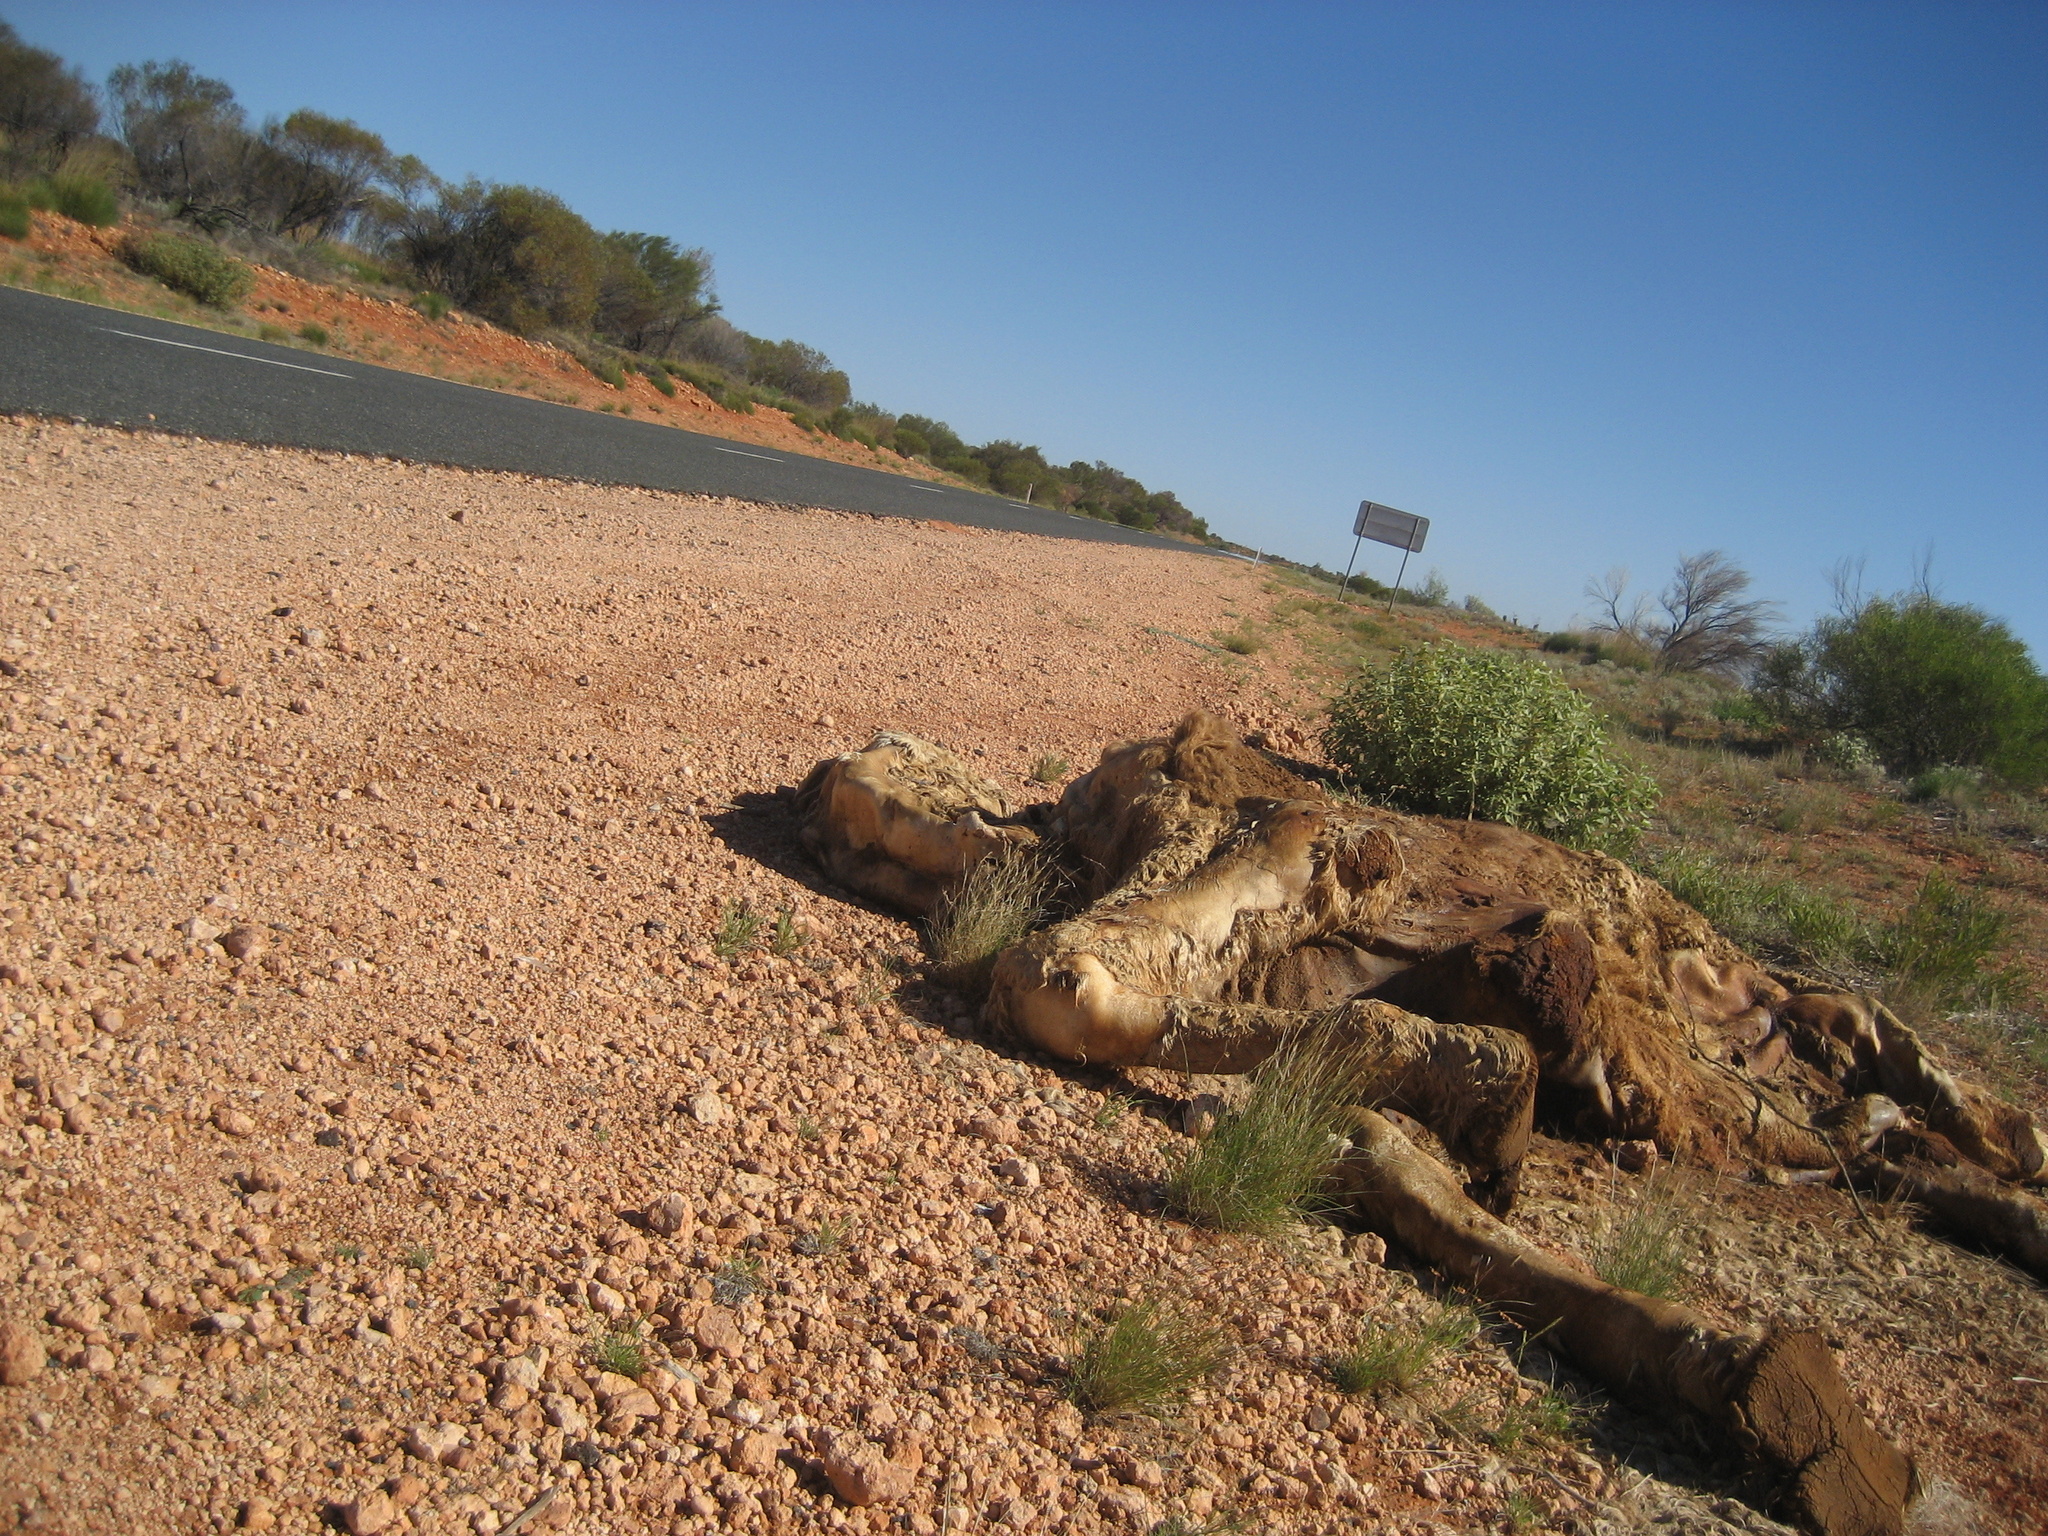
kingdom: Animalia
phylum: Chordata
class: Mammalia
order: Artiodactyla
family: Camelidae
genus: Camelus
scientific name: Camelus dromedarius
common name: One-humped camel
